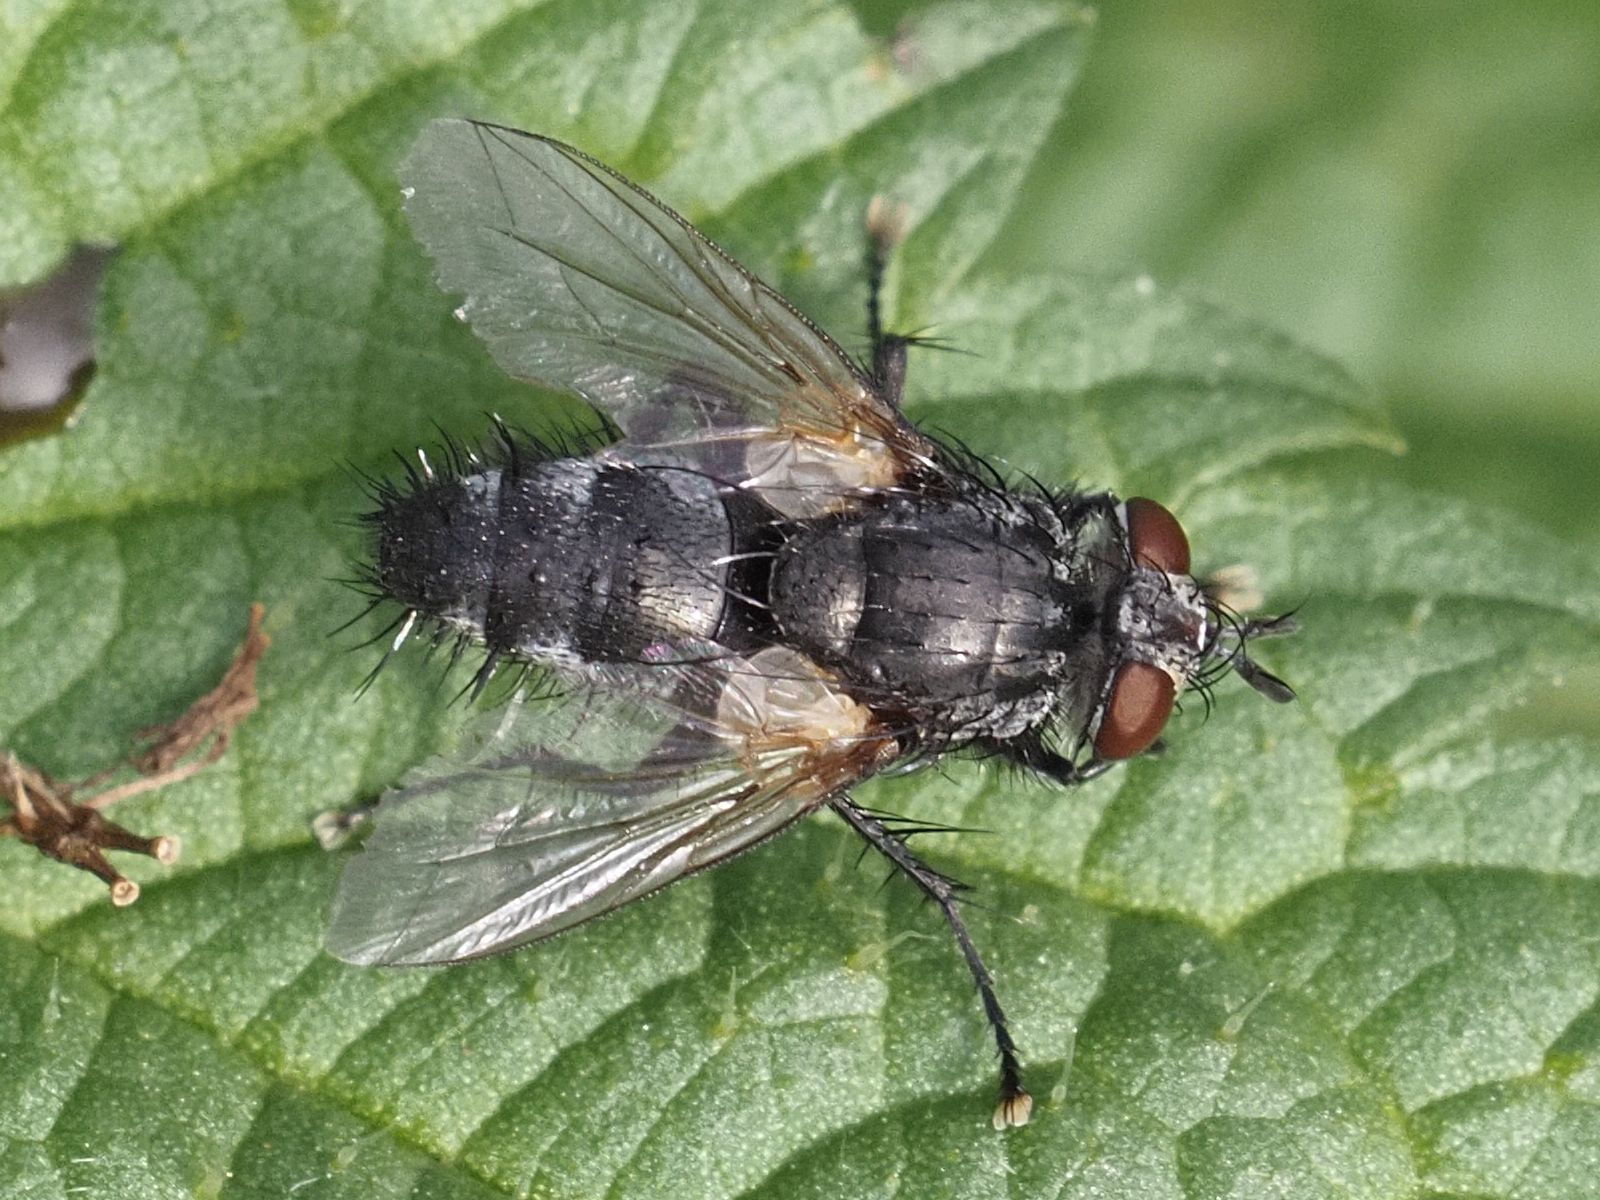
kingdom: Animalia
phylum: Arthropoda
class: Insecta
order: Diptera
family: Tachinidae
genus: Voria
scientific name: Voria ruralis
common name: Parasitic fly
